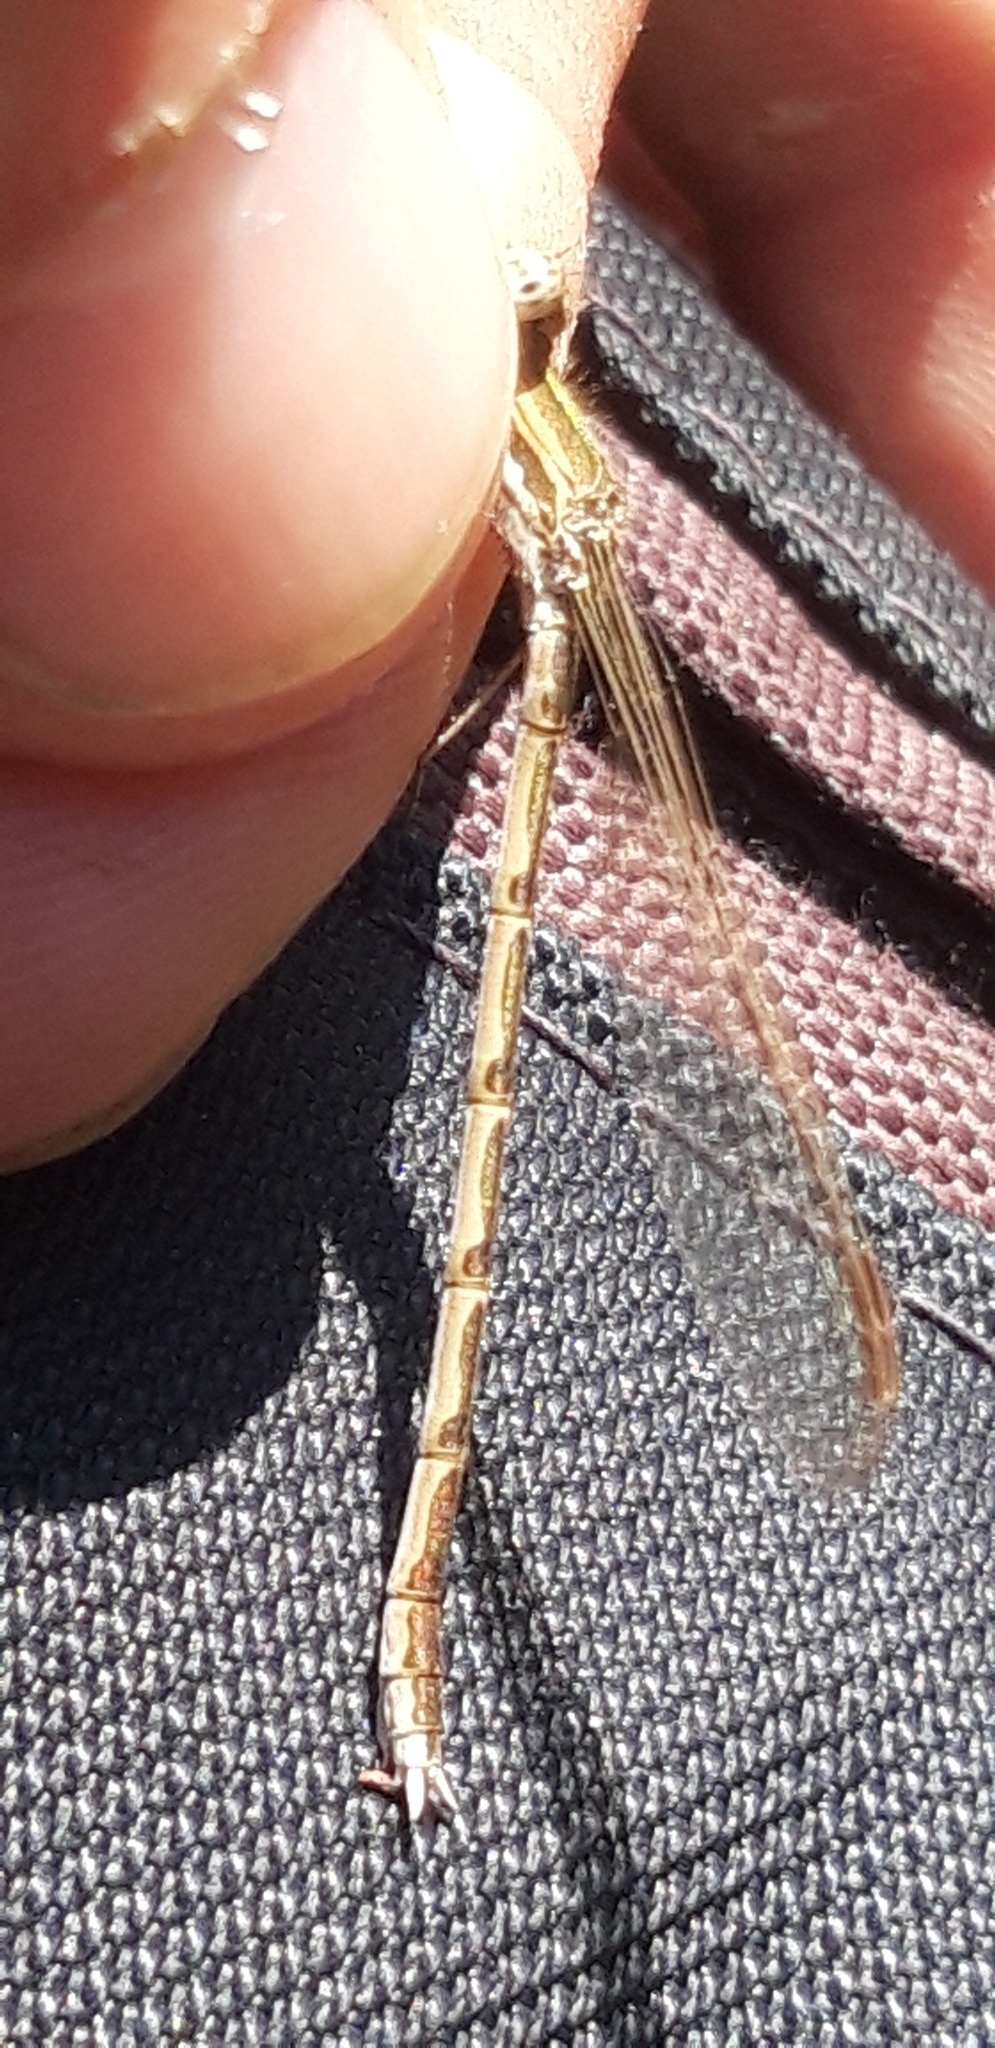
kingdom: Animalia
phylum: Arthropoda
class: Insecta
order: Odonata
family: Lestidae
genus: Sympecma
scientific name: Sympecma fusca
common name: Common winter damsel
